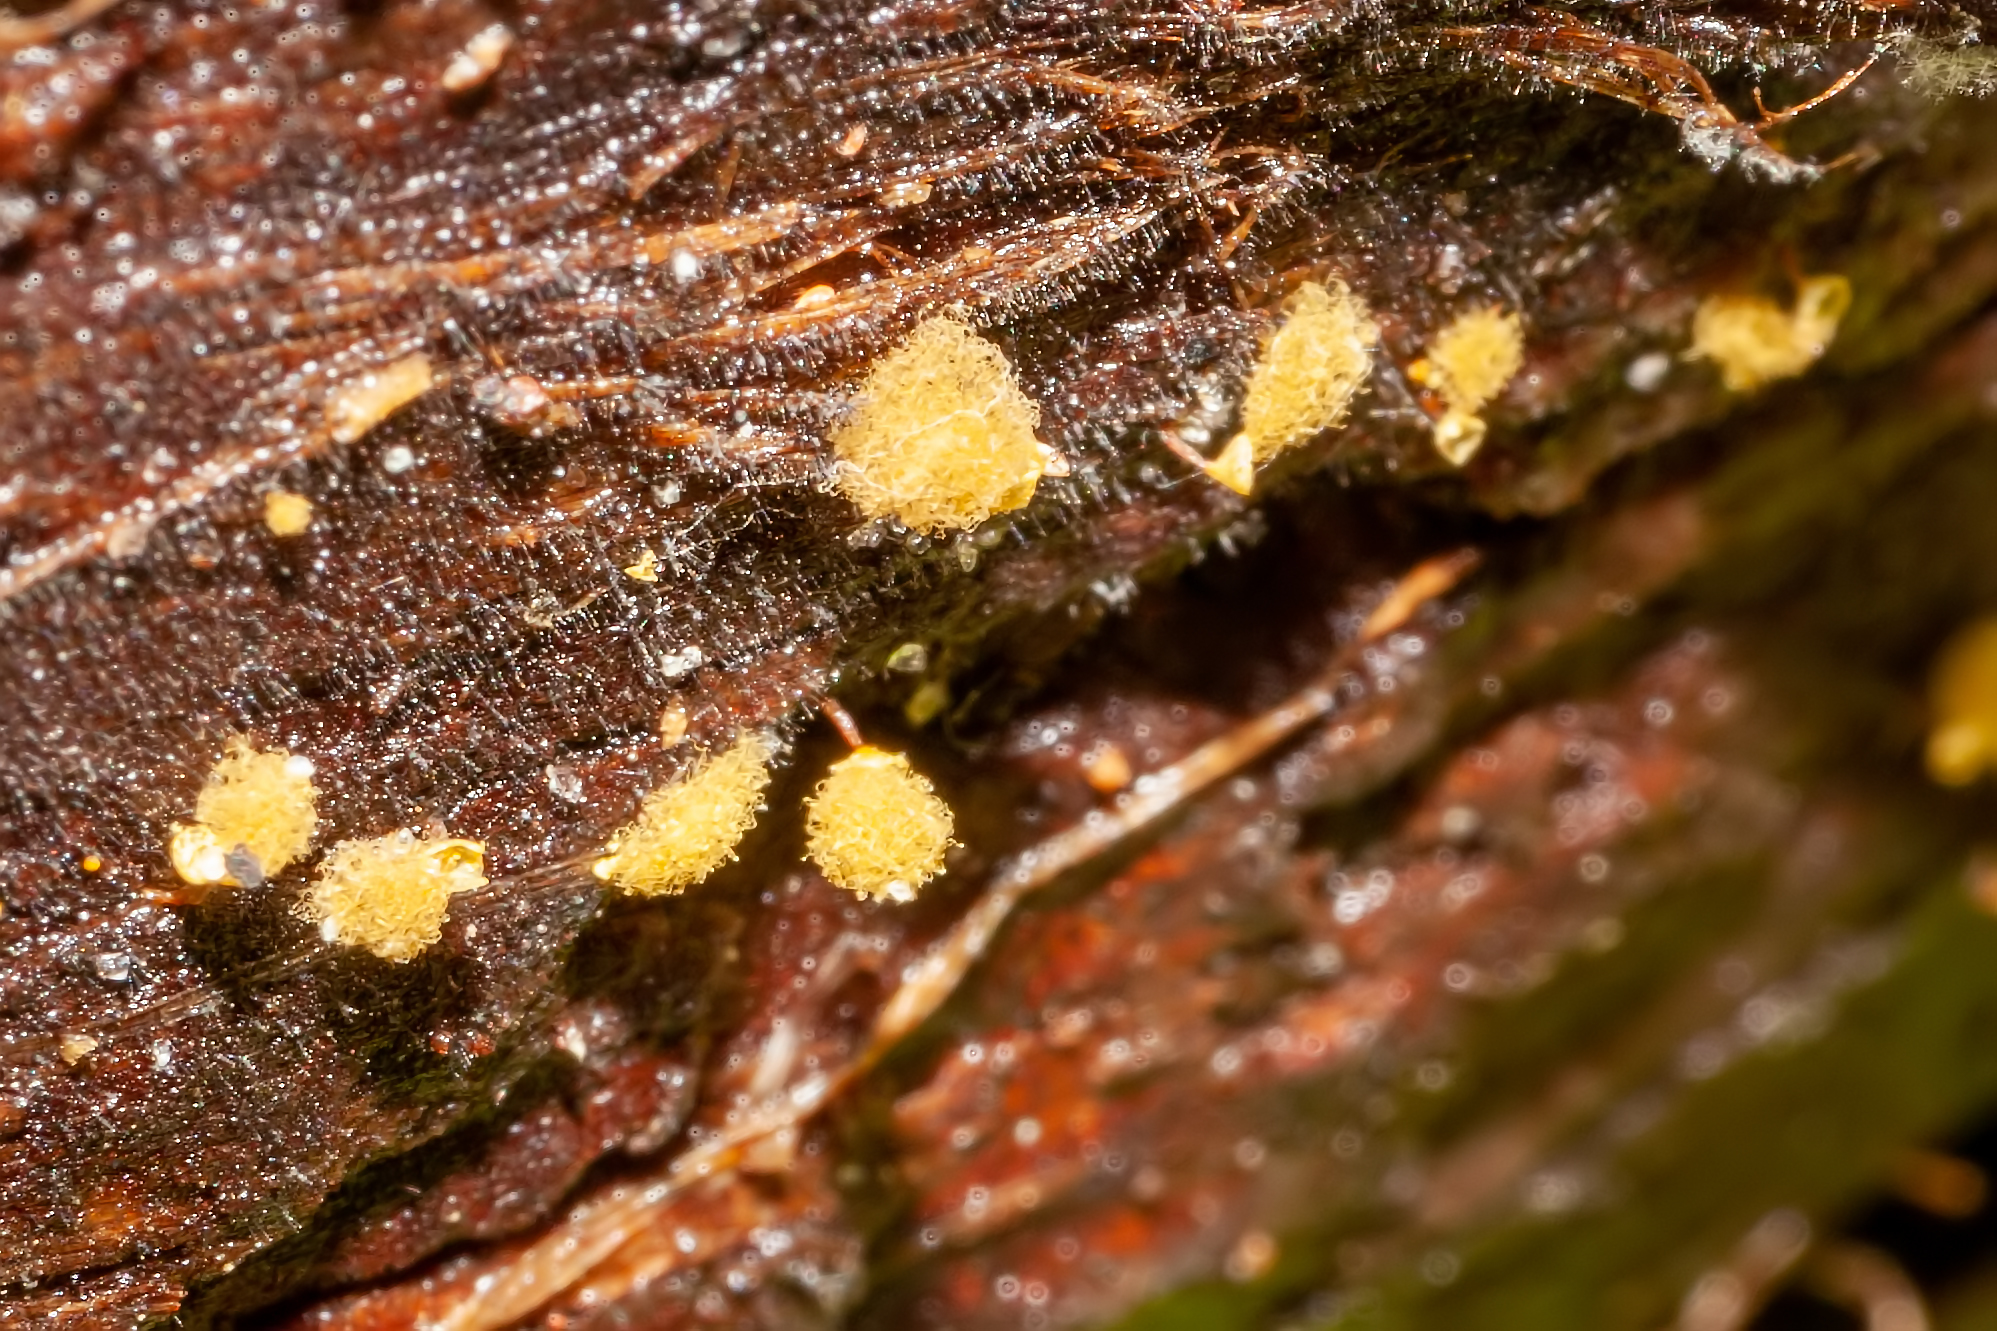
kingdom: Protozoa
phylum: Mycetozoa
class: Myxomycetes
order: Trichiales
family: Arcyriaceae
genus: Hemitrichia
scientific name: Hemitrichia calyculata
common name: Push pin slime mold
